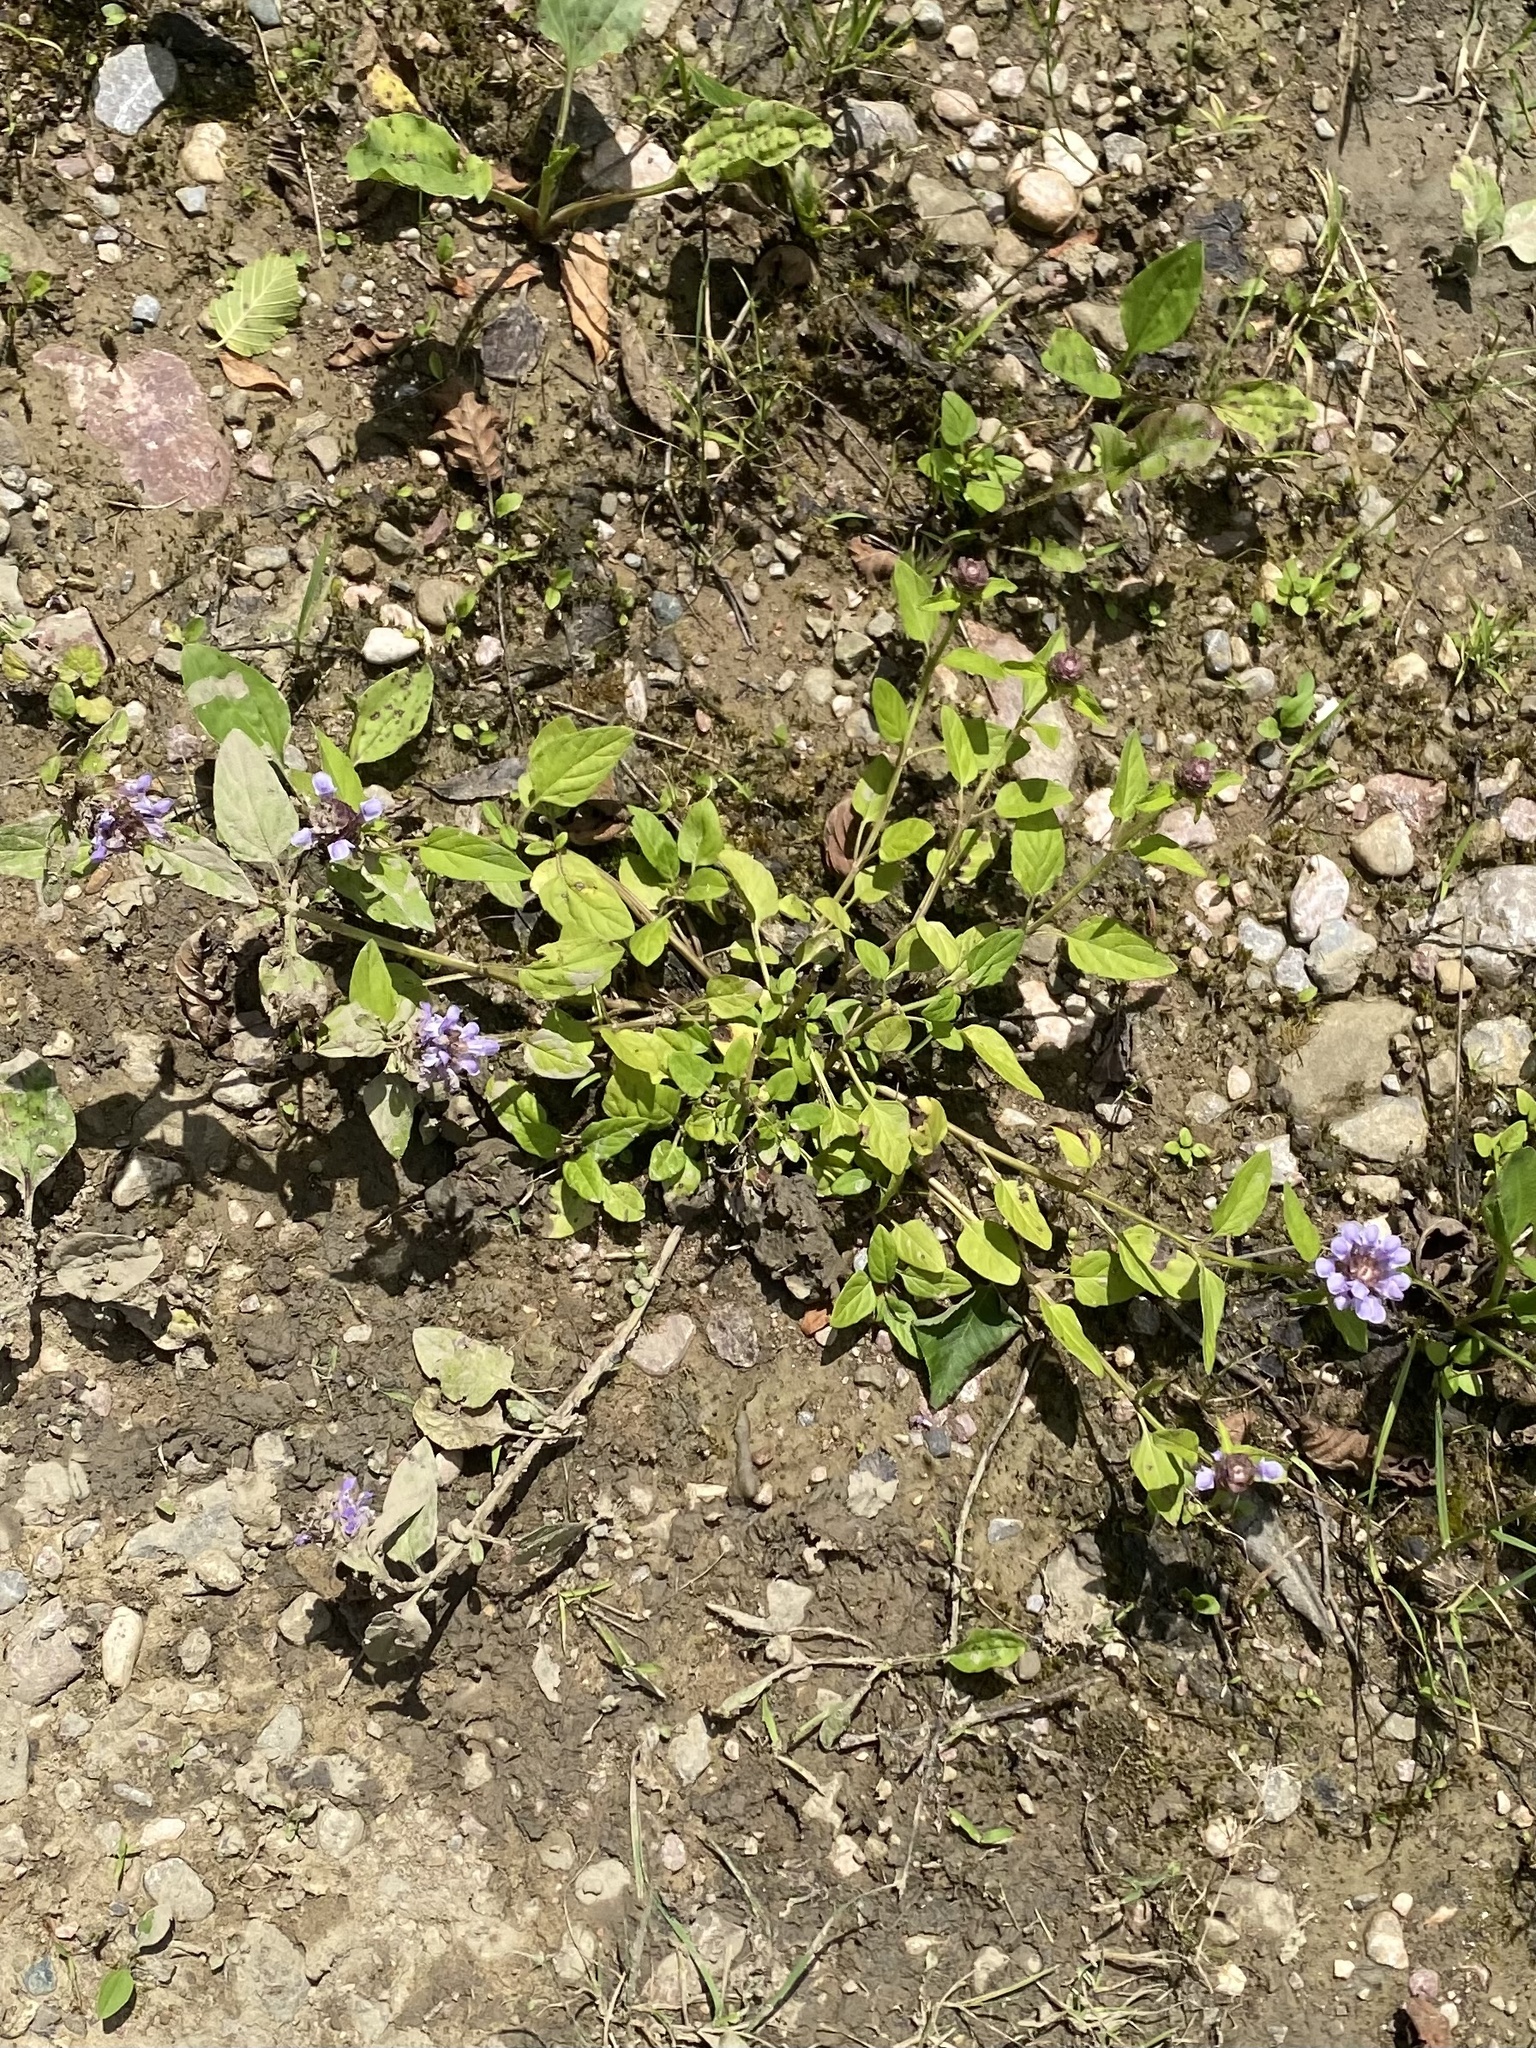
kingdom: Plantae
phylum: Tracheophyta
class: Magnoliopsida
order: Lamiales
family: Lamiaceae
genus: Prunella
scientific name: Prunella vulgaris
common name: Heal-all
